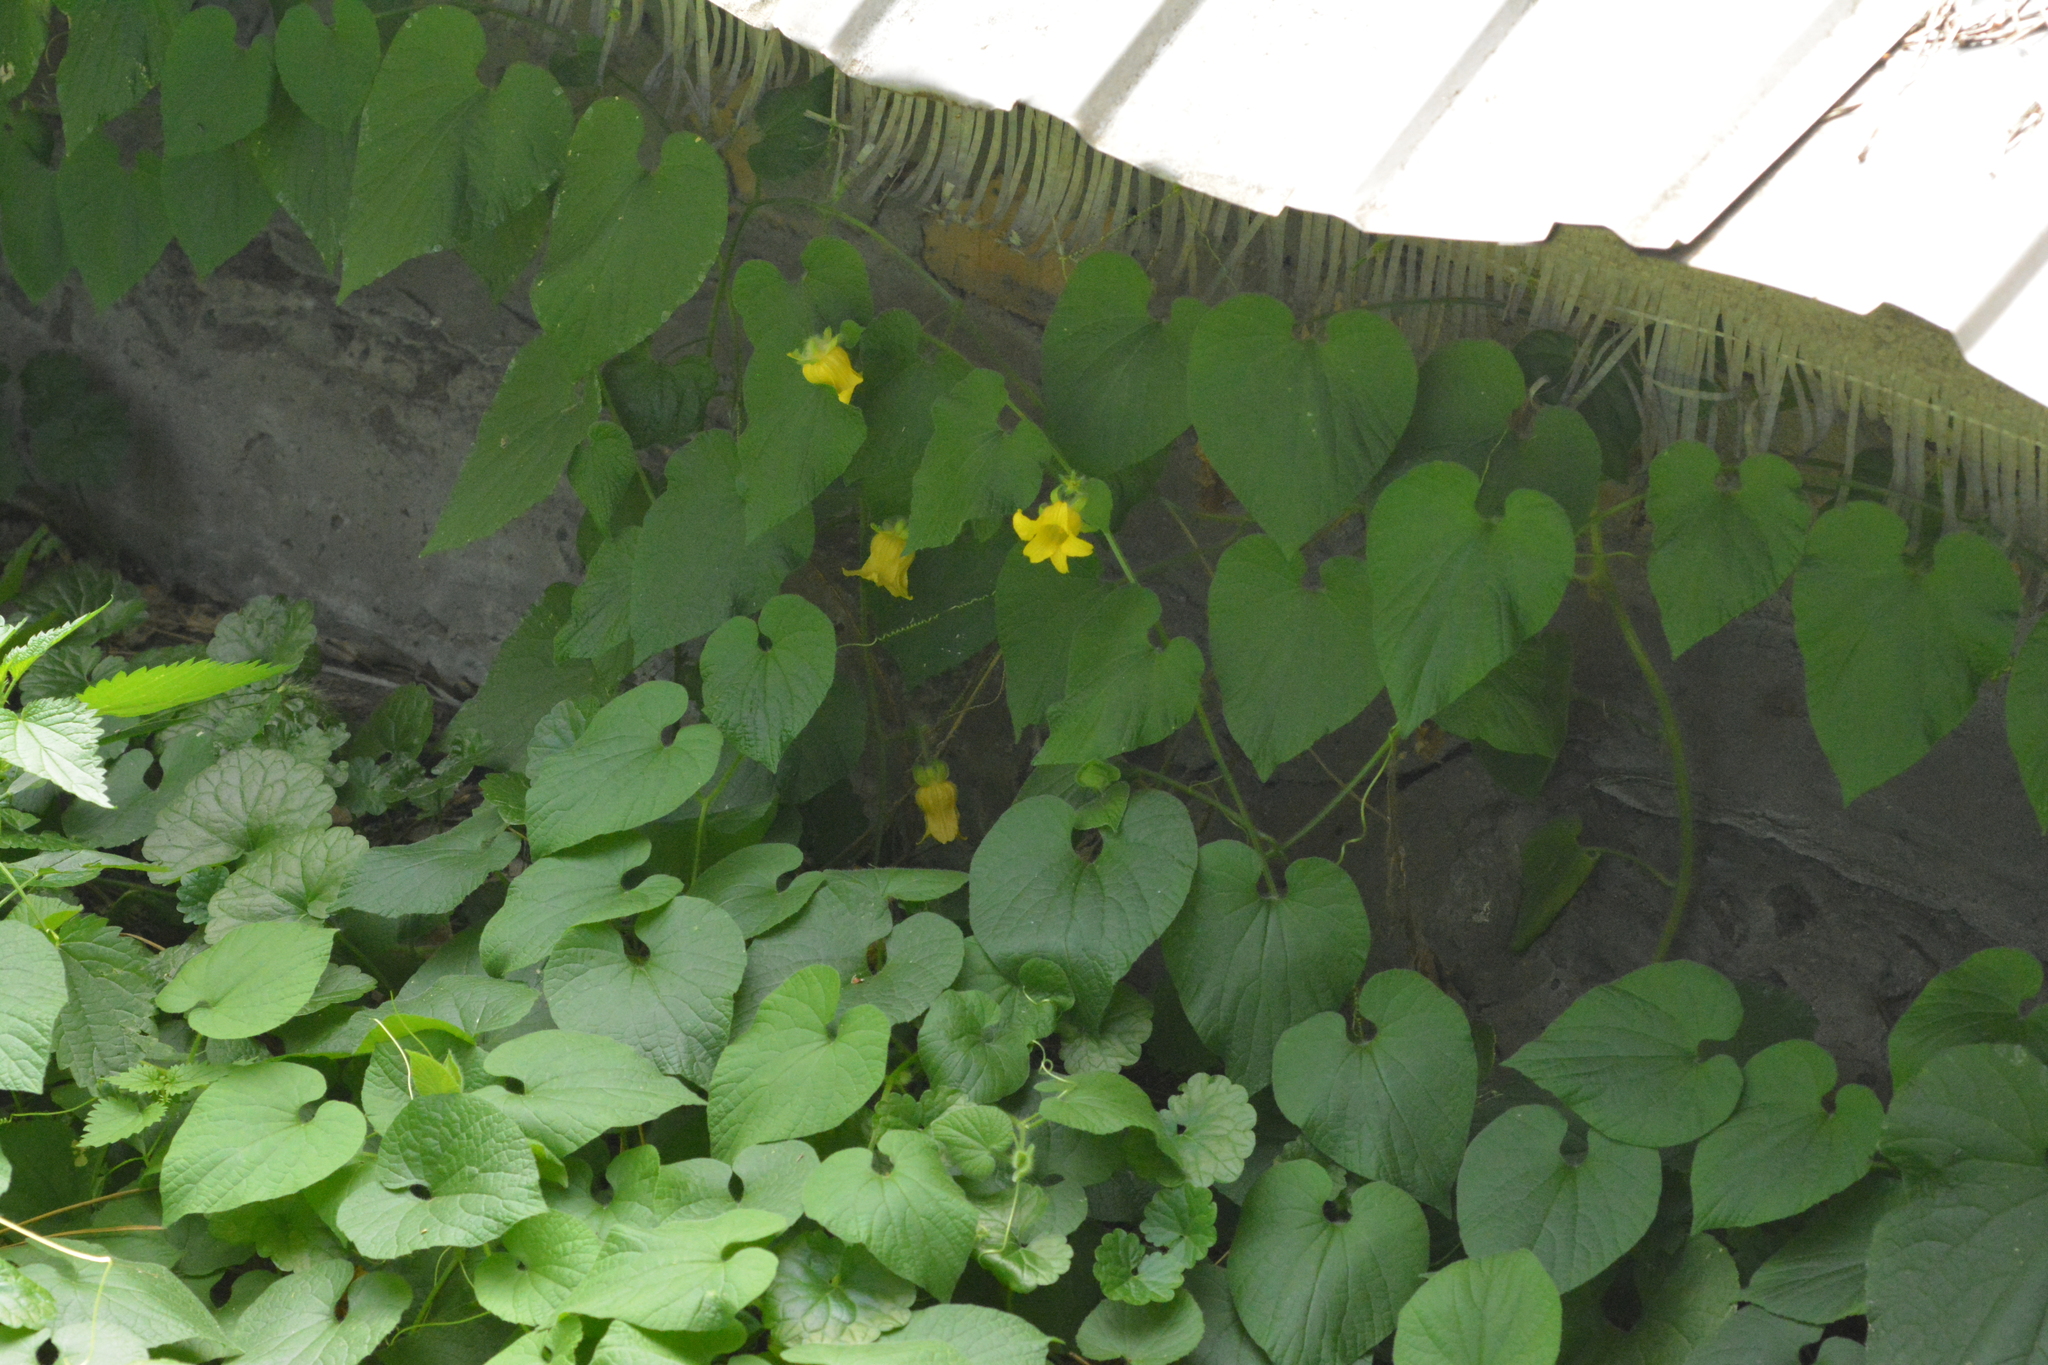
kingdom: Plantae
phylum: Tracheophyta
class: Magnoliopsida
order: Cucurbitales
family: Cucurbitaceae
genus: Thladiantha
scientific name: Thladiantha dubia
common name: Manchu tubergourd
